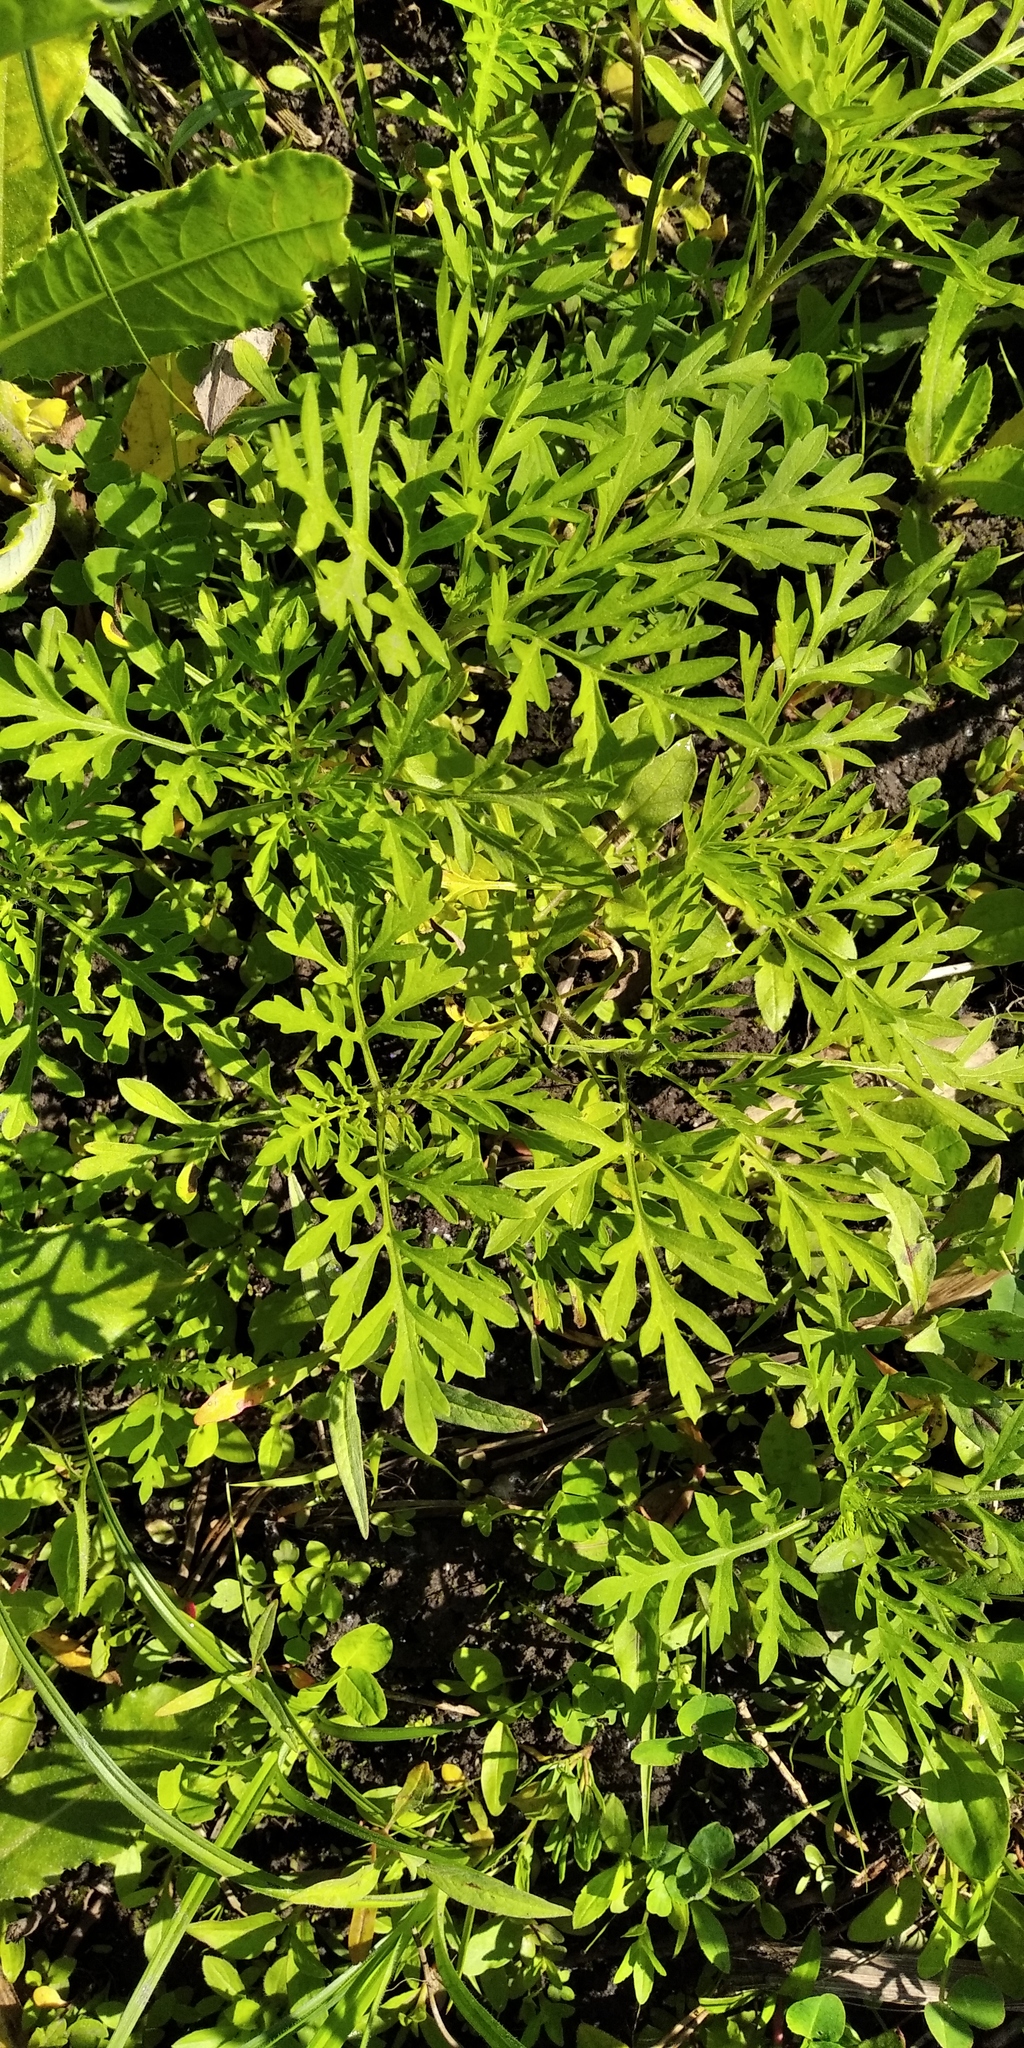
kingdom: Plantae
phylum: Tracheophyta
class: Magnoliopsida
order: Asterales
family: Asteraceae
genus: Ambrosia
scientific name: Ambrosia artemisiifolia
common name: Annual ragweed
